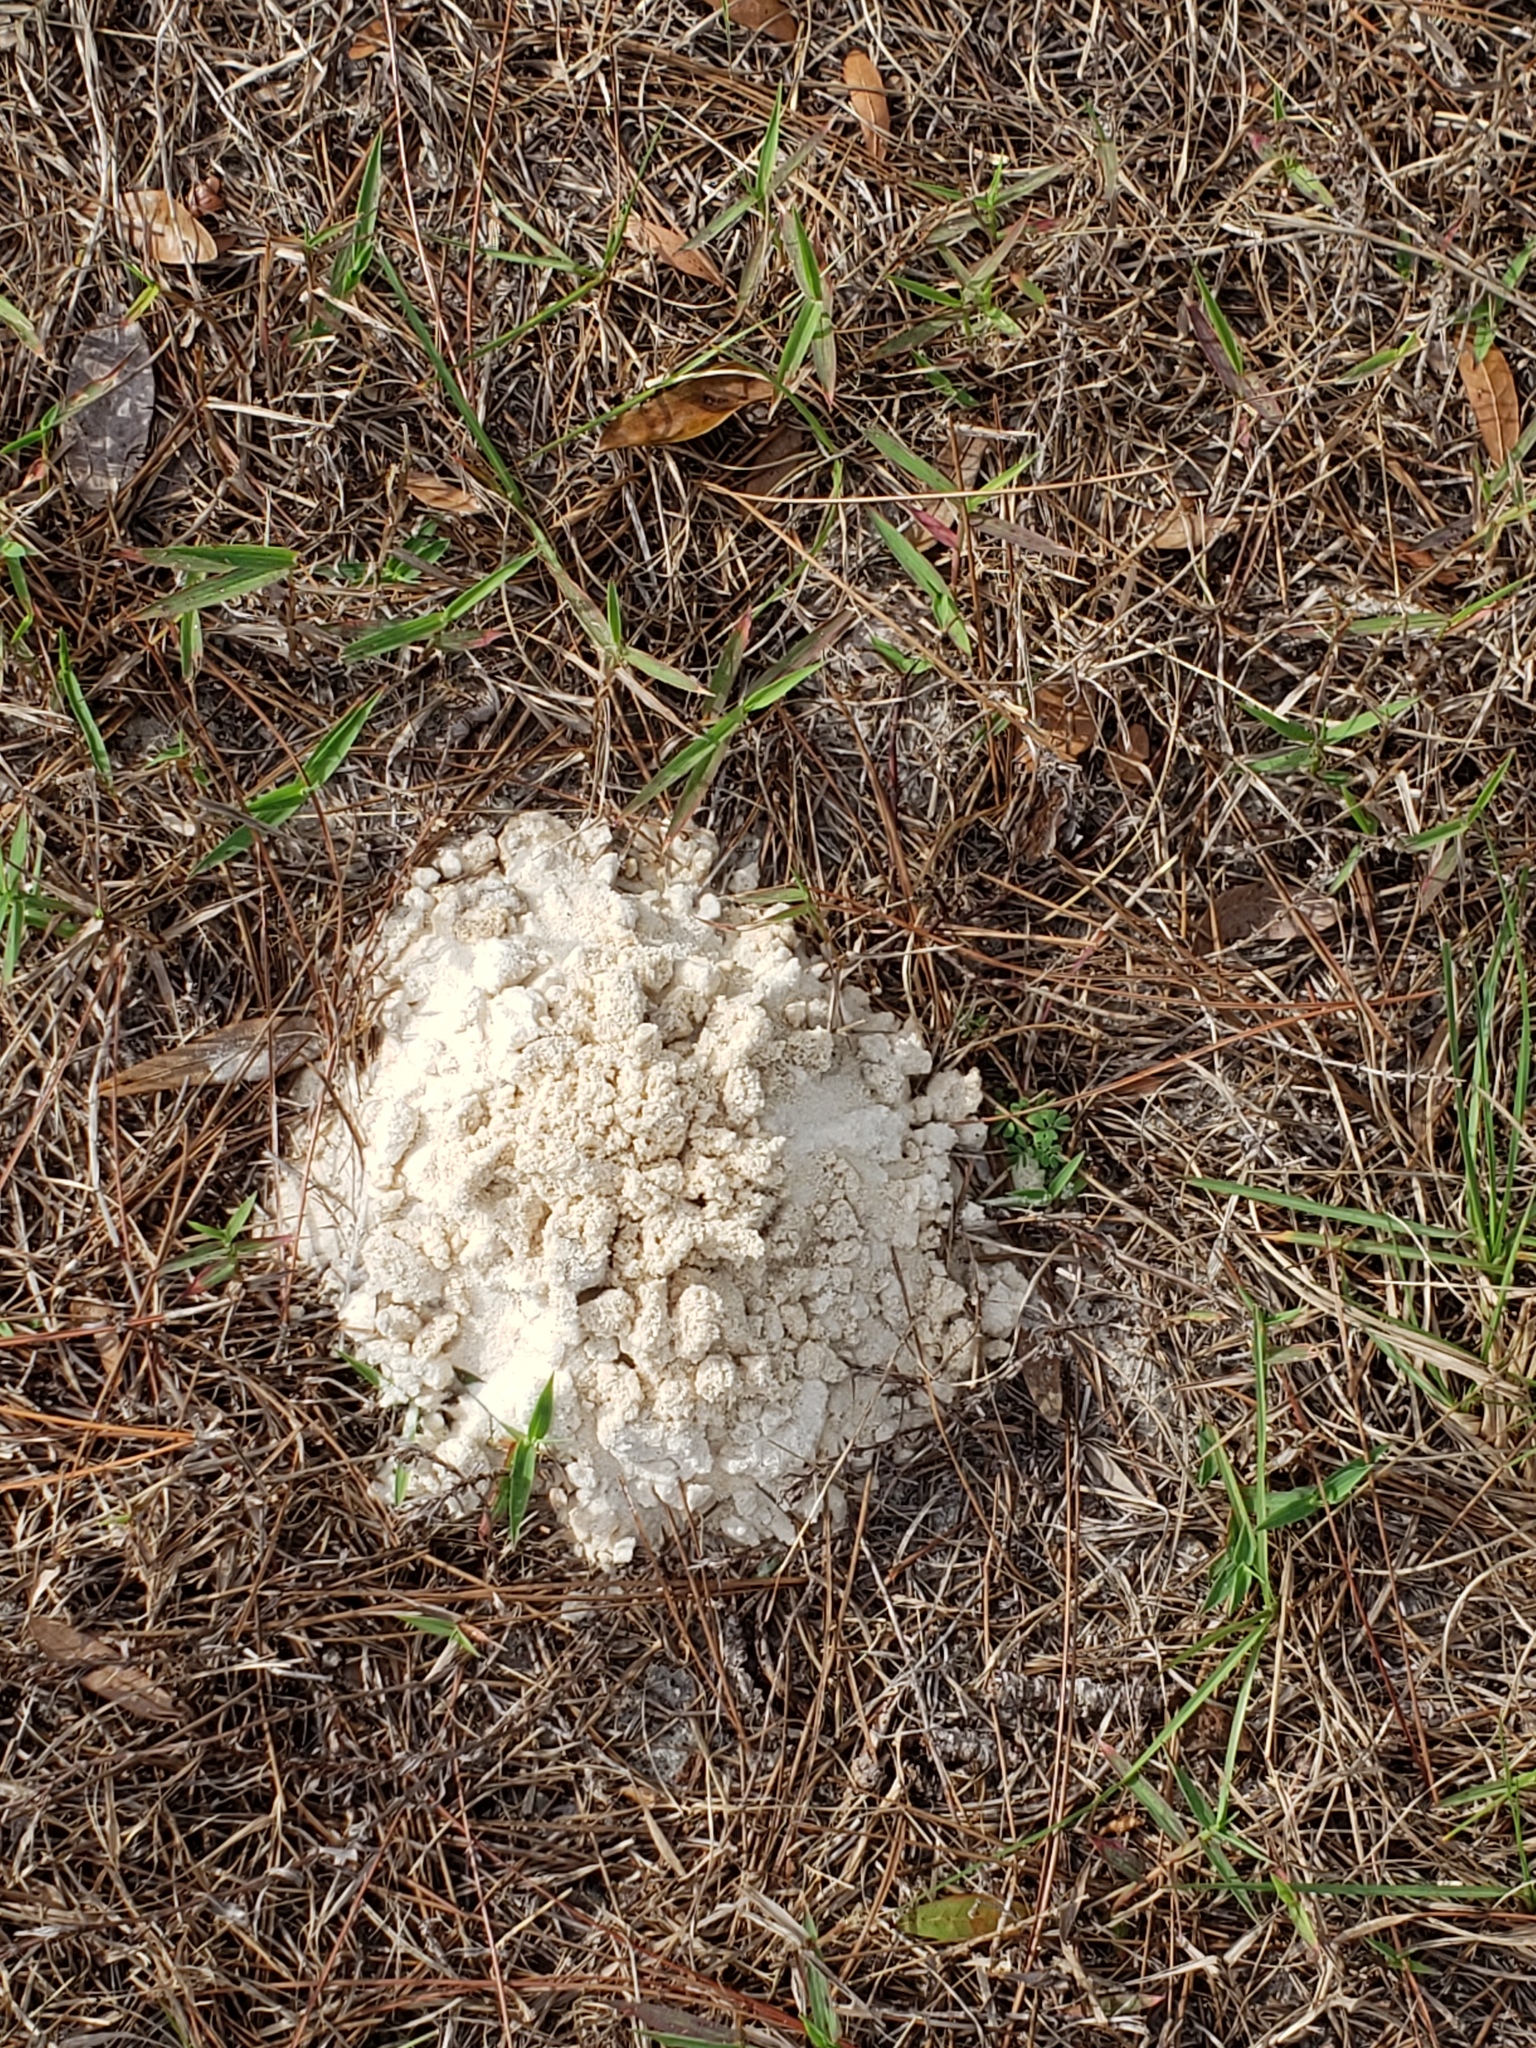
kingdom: Animalia
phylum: Arthropoda
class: Insecta
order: Coleoptera
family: Geotrupidae
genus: Peltotrupes
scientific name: Peltotrupes profundus
